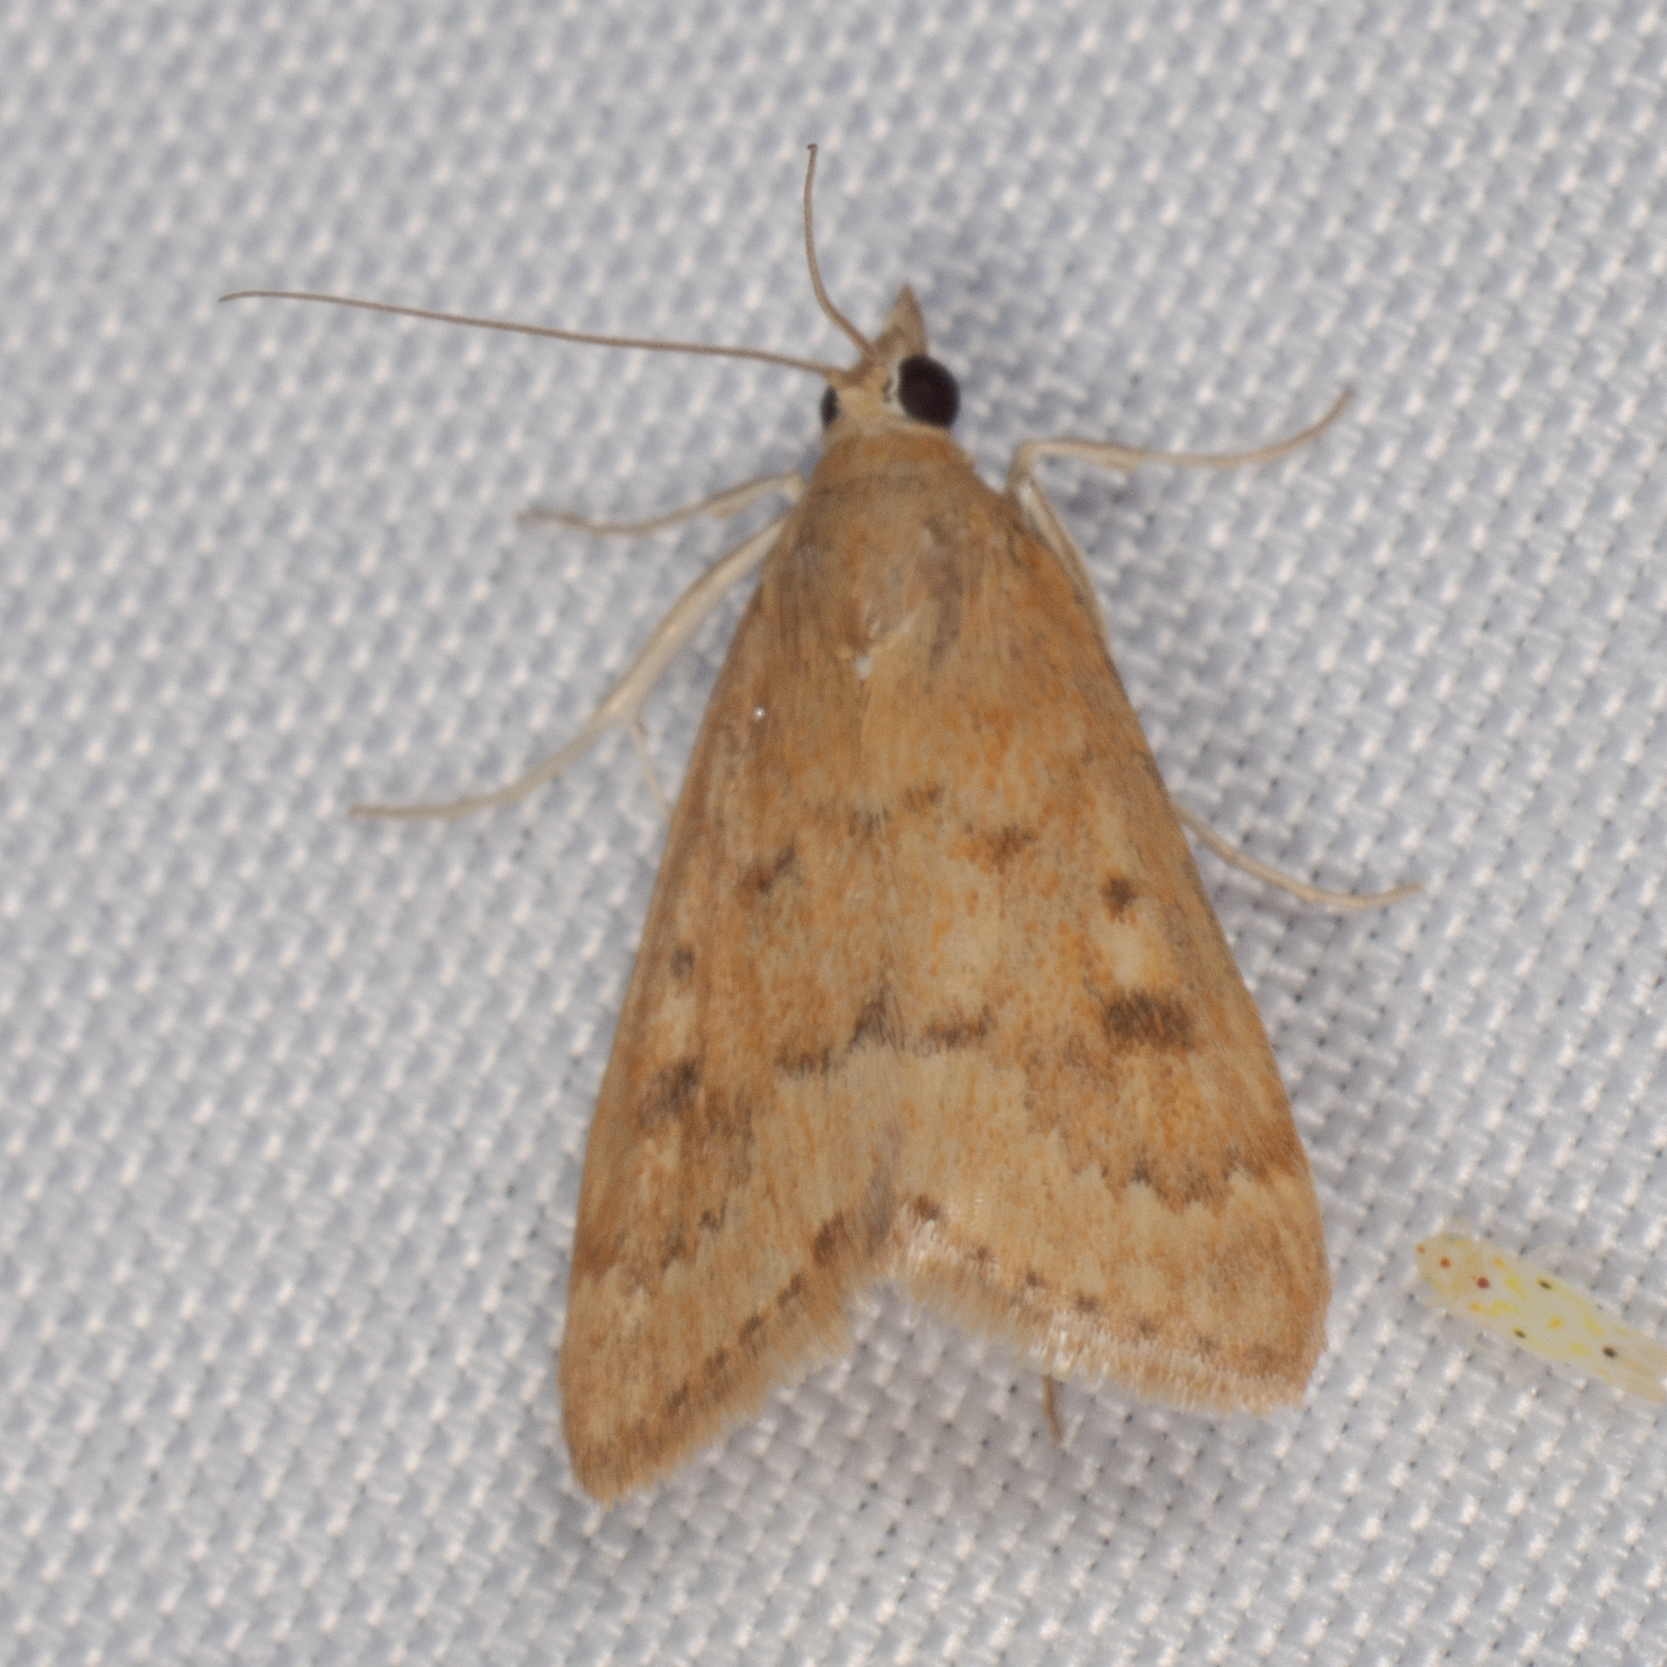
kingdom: Animalia
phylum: Arthropoda
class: Insecta
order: Lepidoptera
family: Crambidae
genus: Achyra
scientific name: Achyra rantalis
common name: Garden webworm
